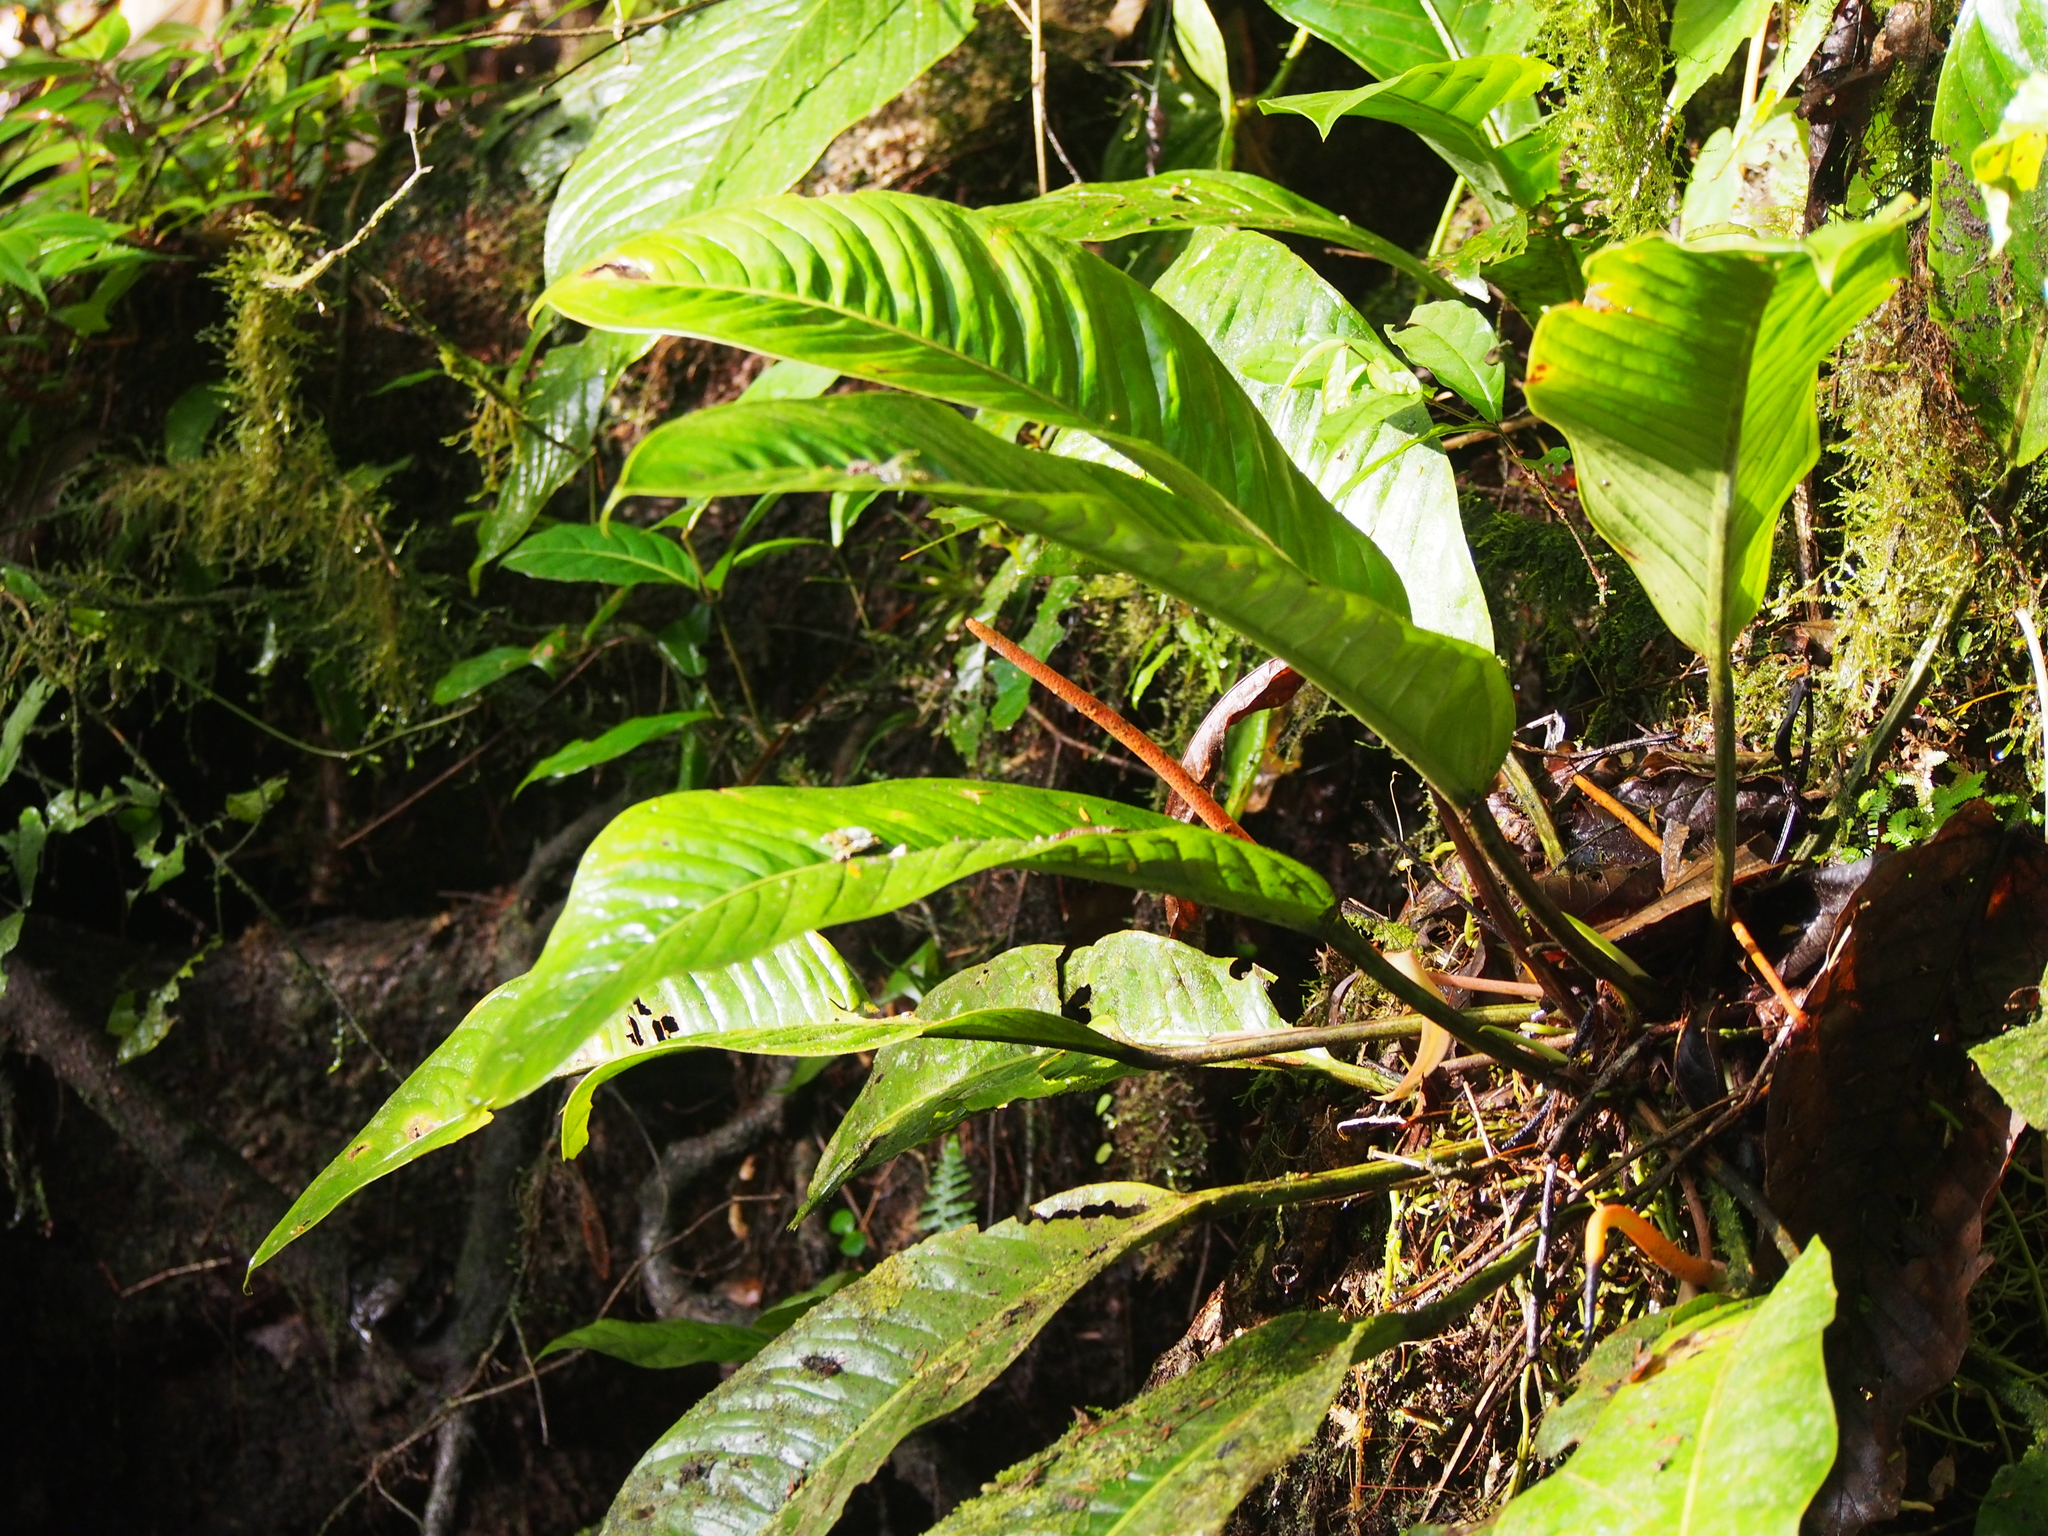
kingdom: Plantae
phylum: Tracheophyta
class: Liliopsida
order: Alismatales
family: Araceae
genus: Anthurium
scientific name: Anthurium ramonense
